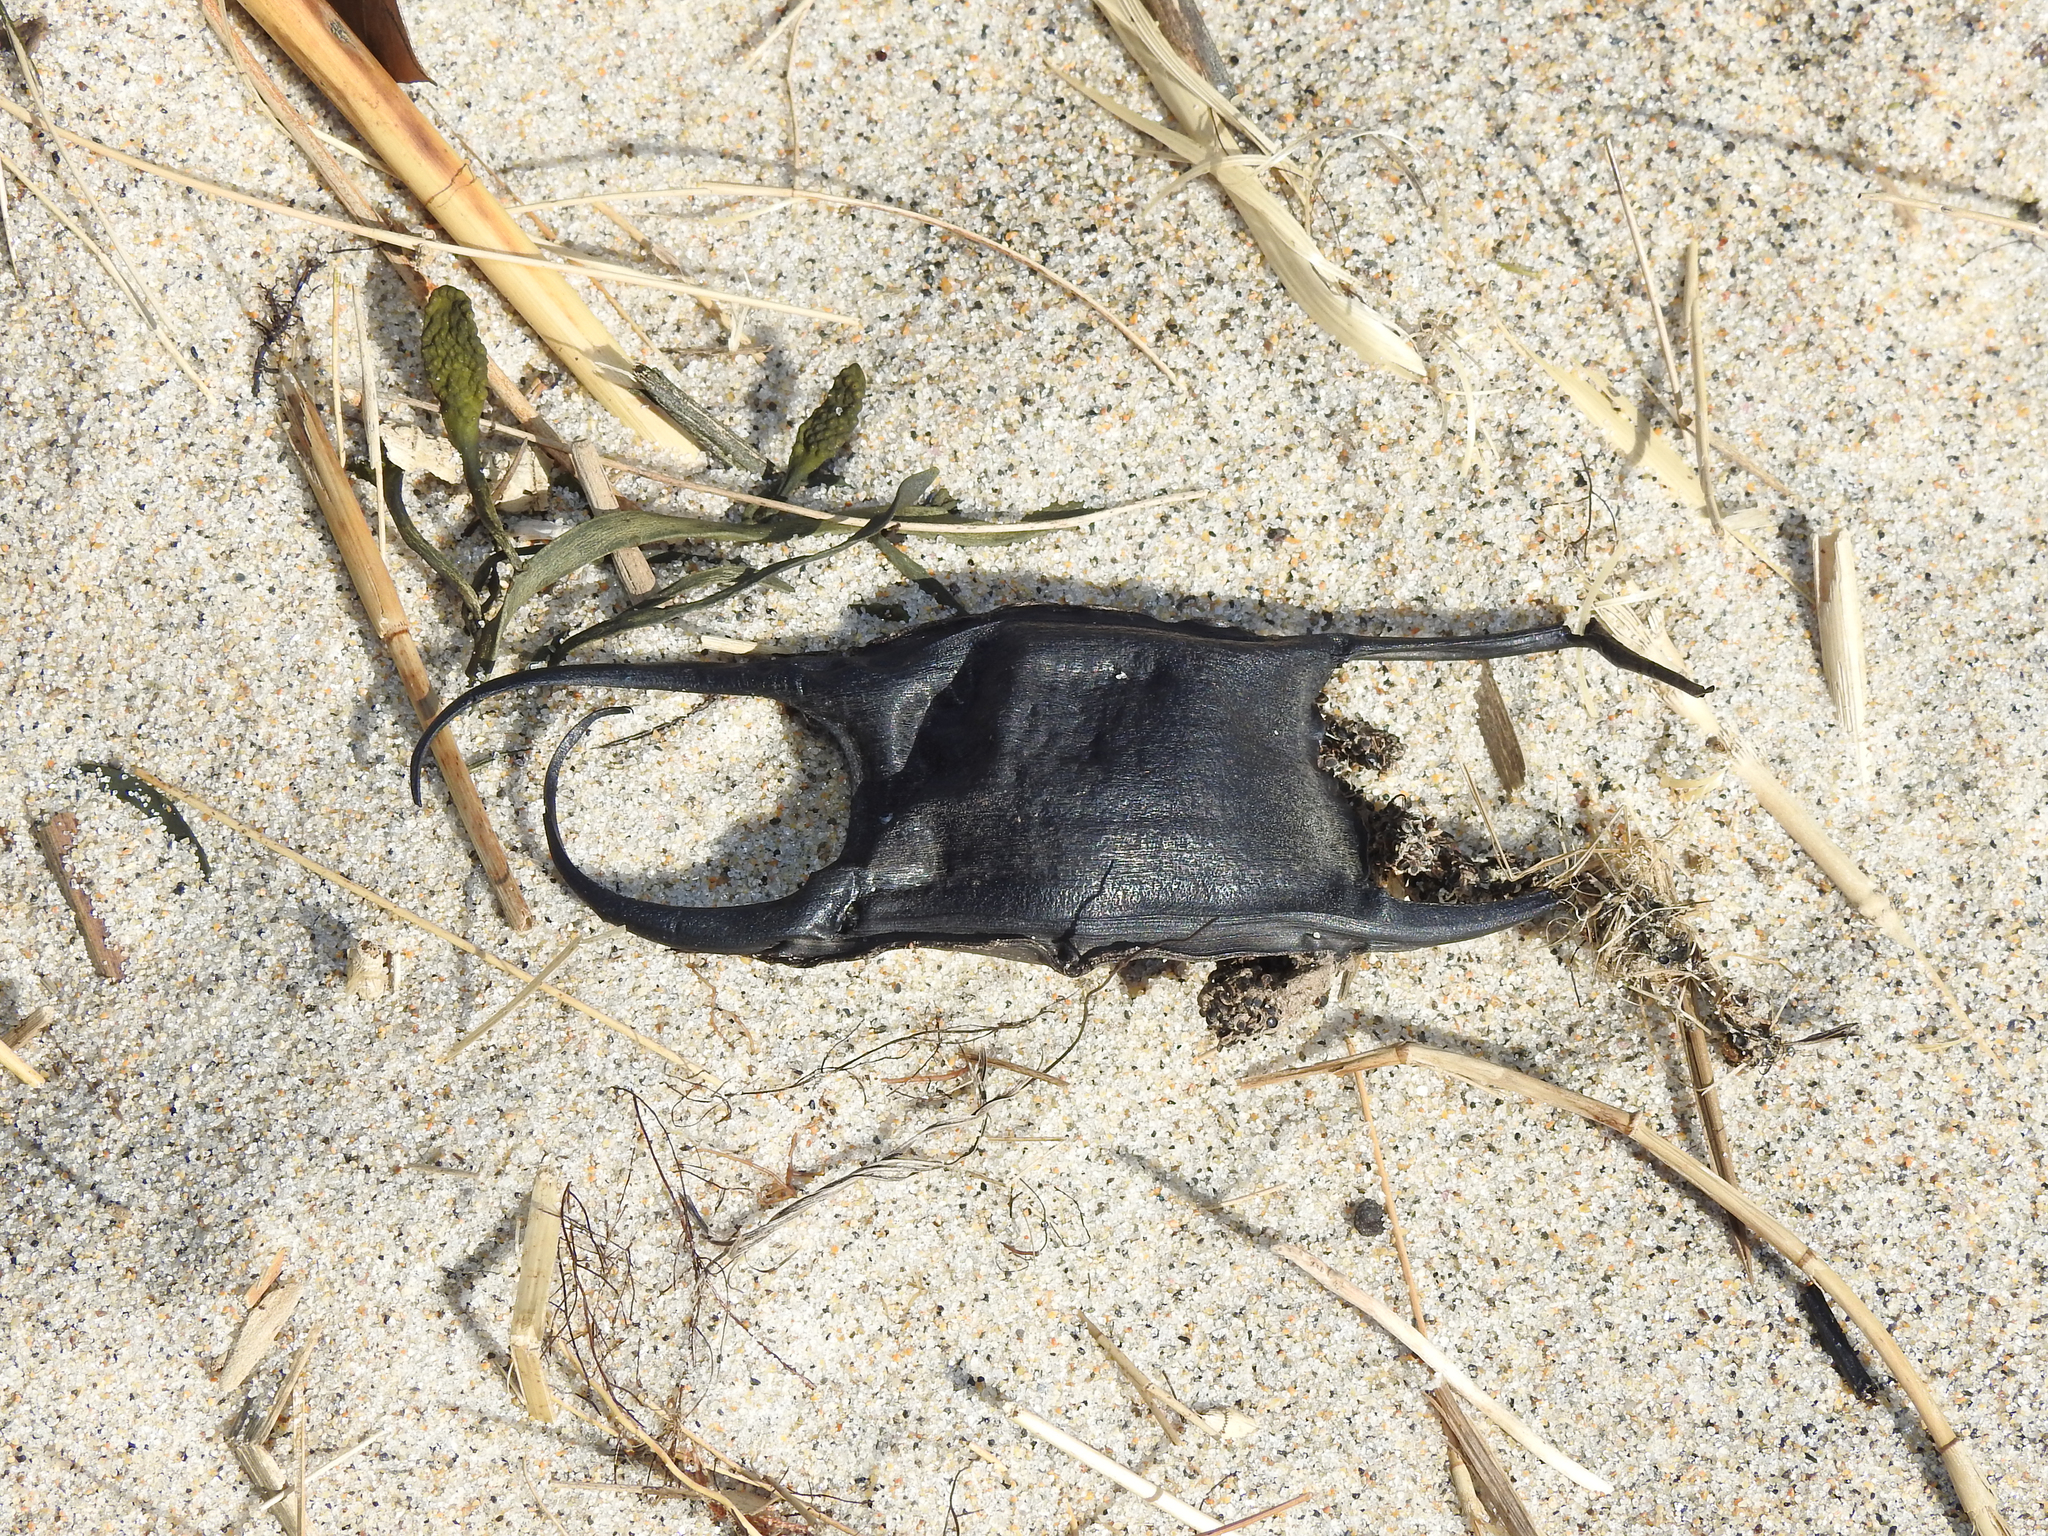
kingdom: Animalia
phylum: Chordata
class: Elasmobranchii
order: Rajiformes
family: Rajidae
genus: Leucoraja
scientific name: Leucoraja erinacea
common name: Little skate
